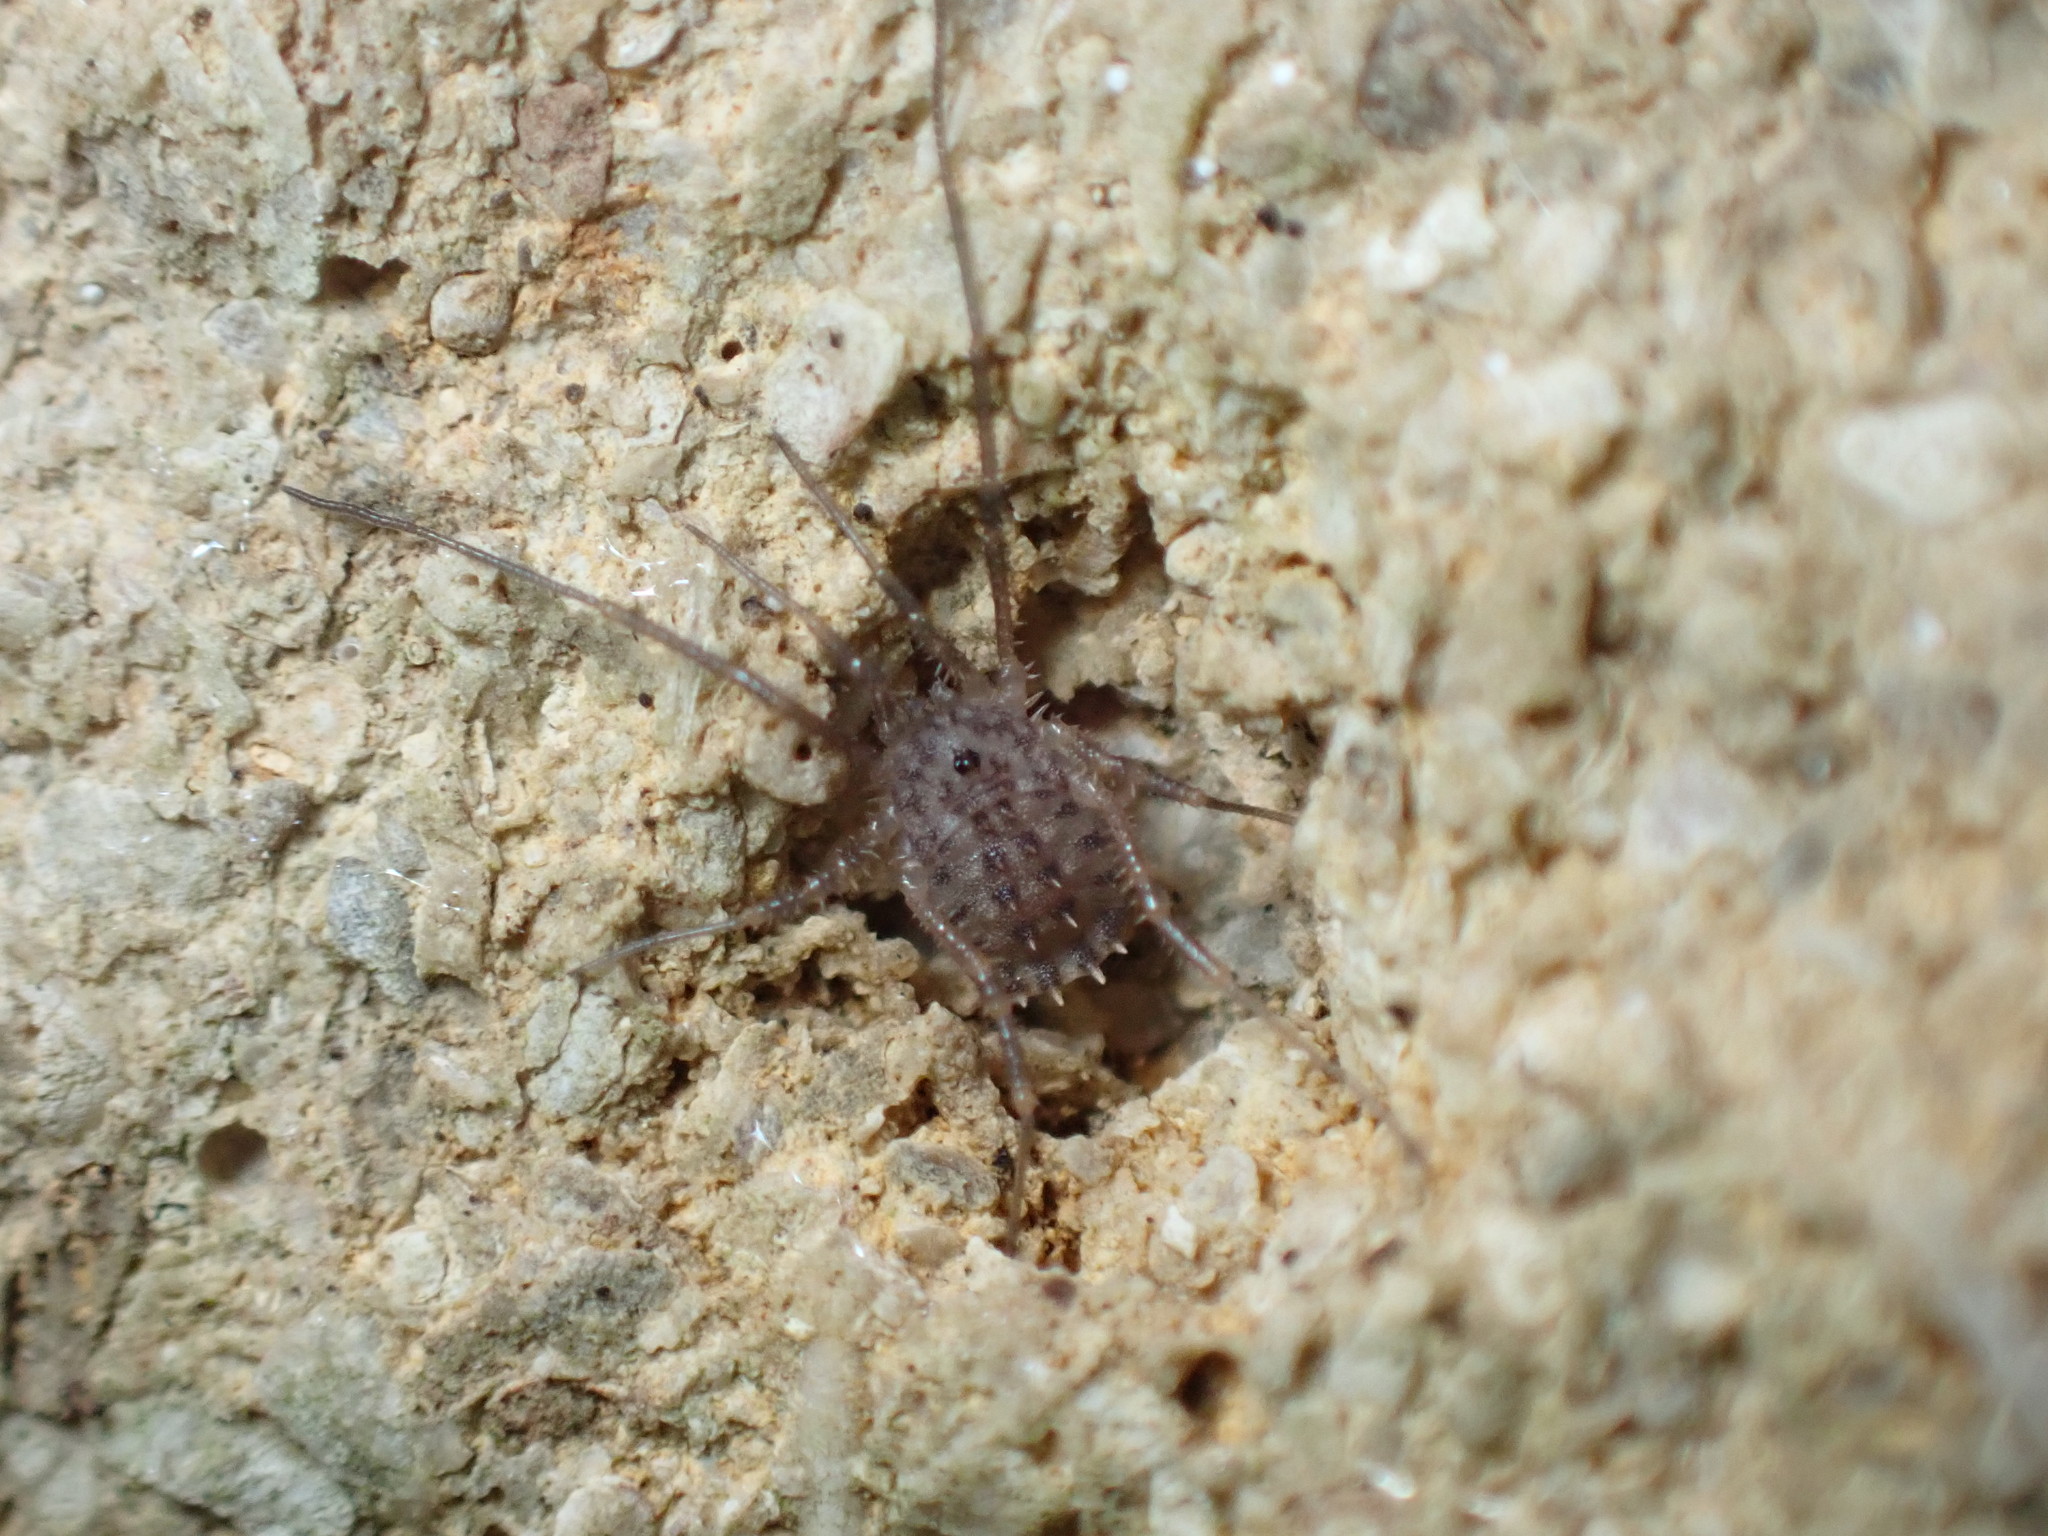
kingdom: Animalia
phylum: Arthropoda
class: Arachnida
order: Opiliones
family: Sclerosomatidae
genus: Homalenotus
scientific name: Homalenotus quadridentatus
